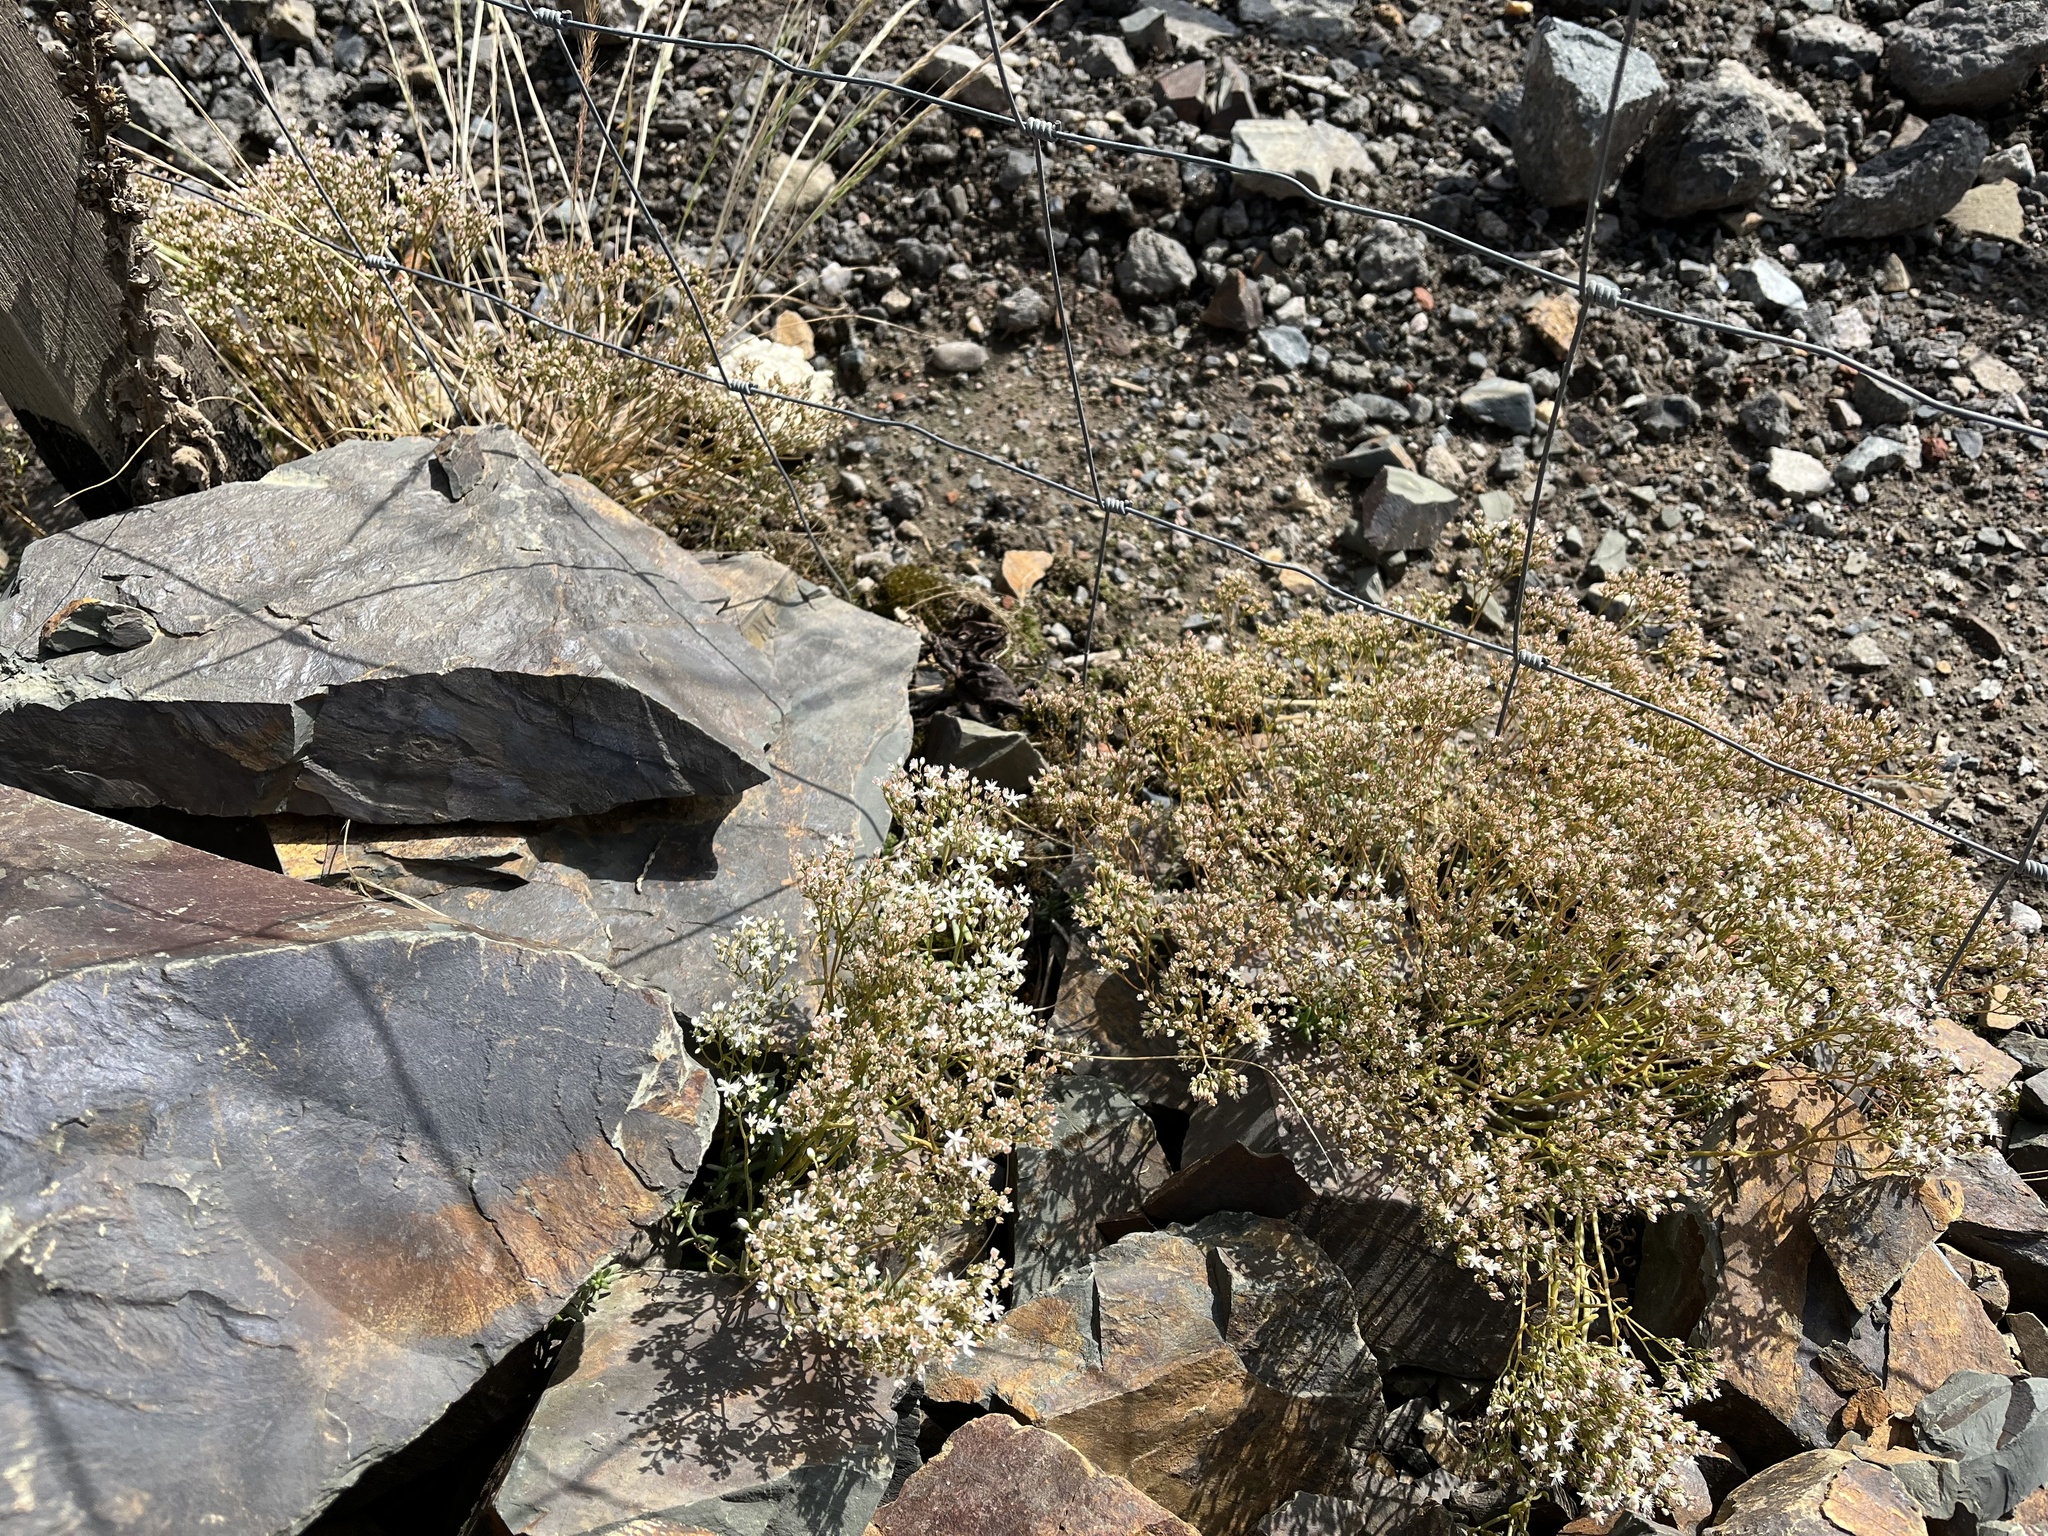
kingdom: Plantae
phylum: Tracheophyta
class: Magnoliopsida
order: Saxifragales
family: Crassulaceae
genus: Sedum
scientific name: Sedum album
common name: White stonecrop
